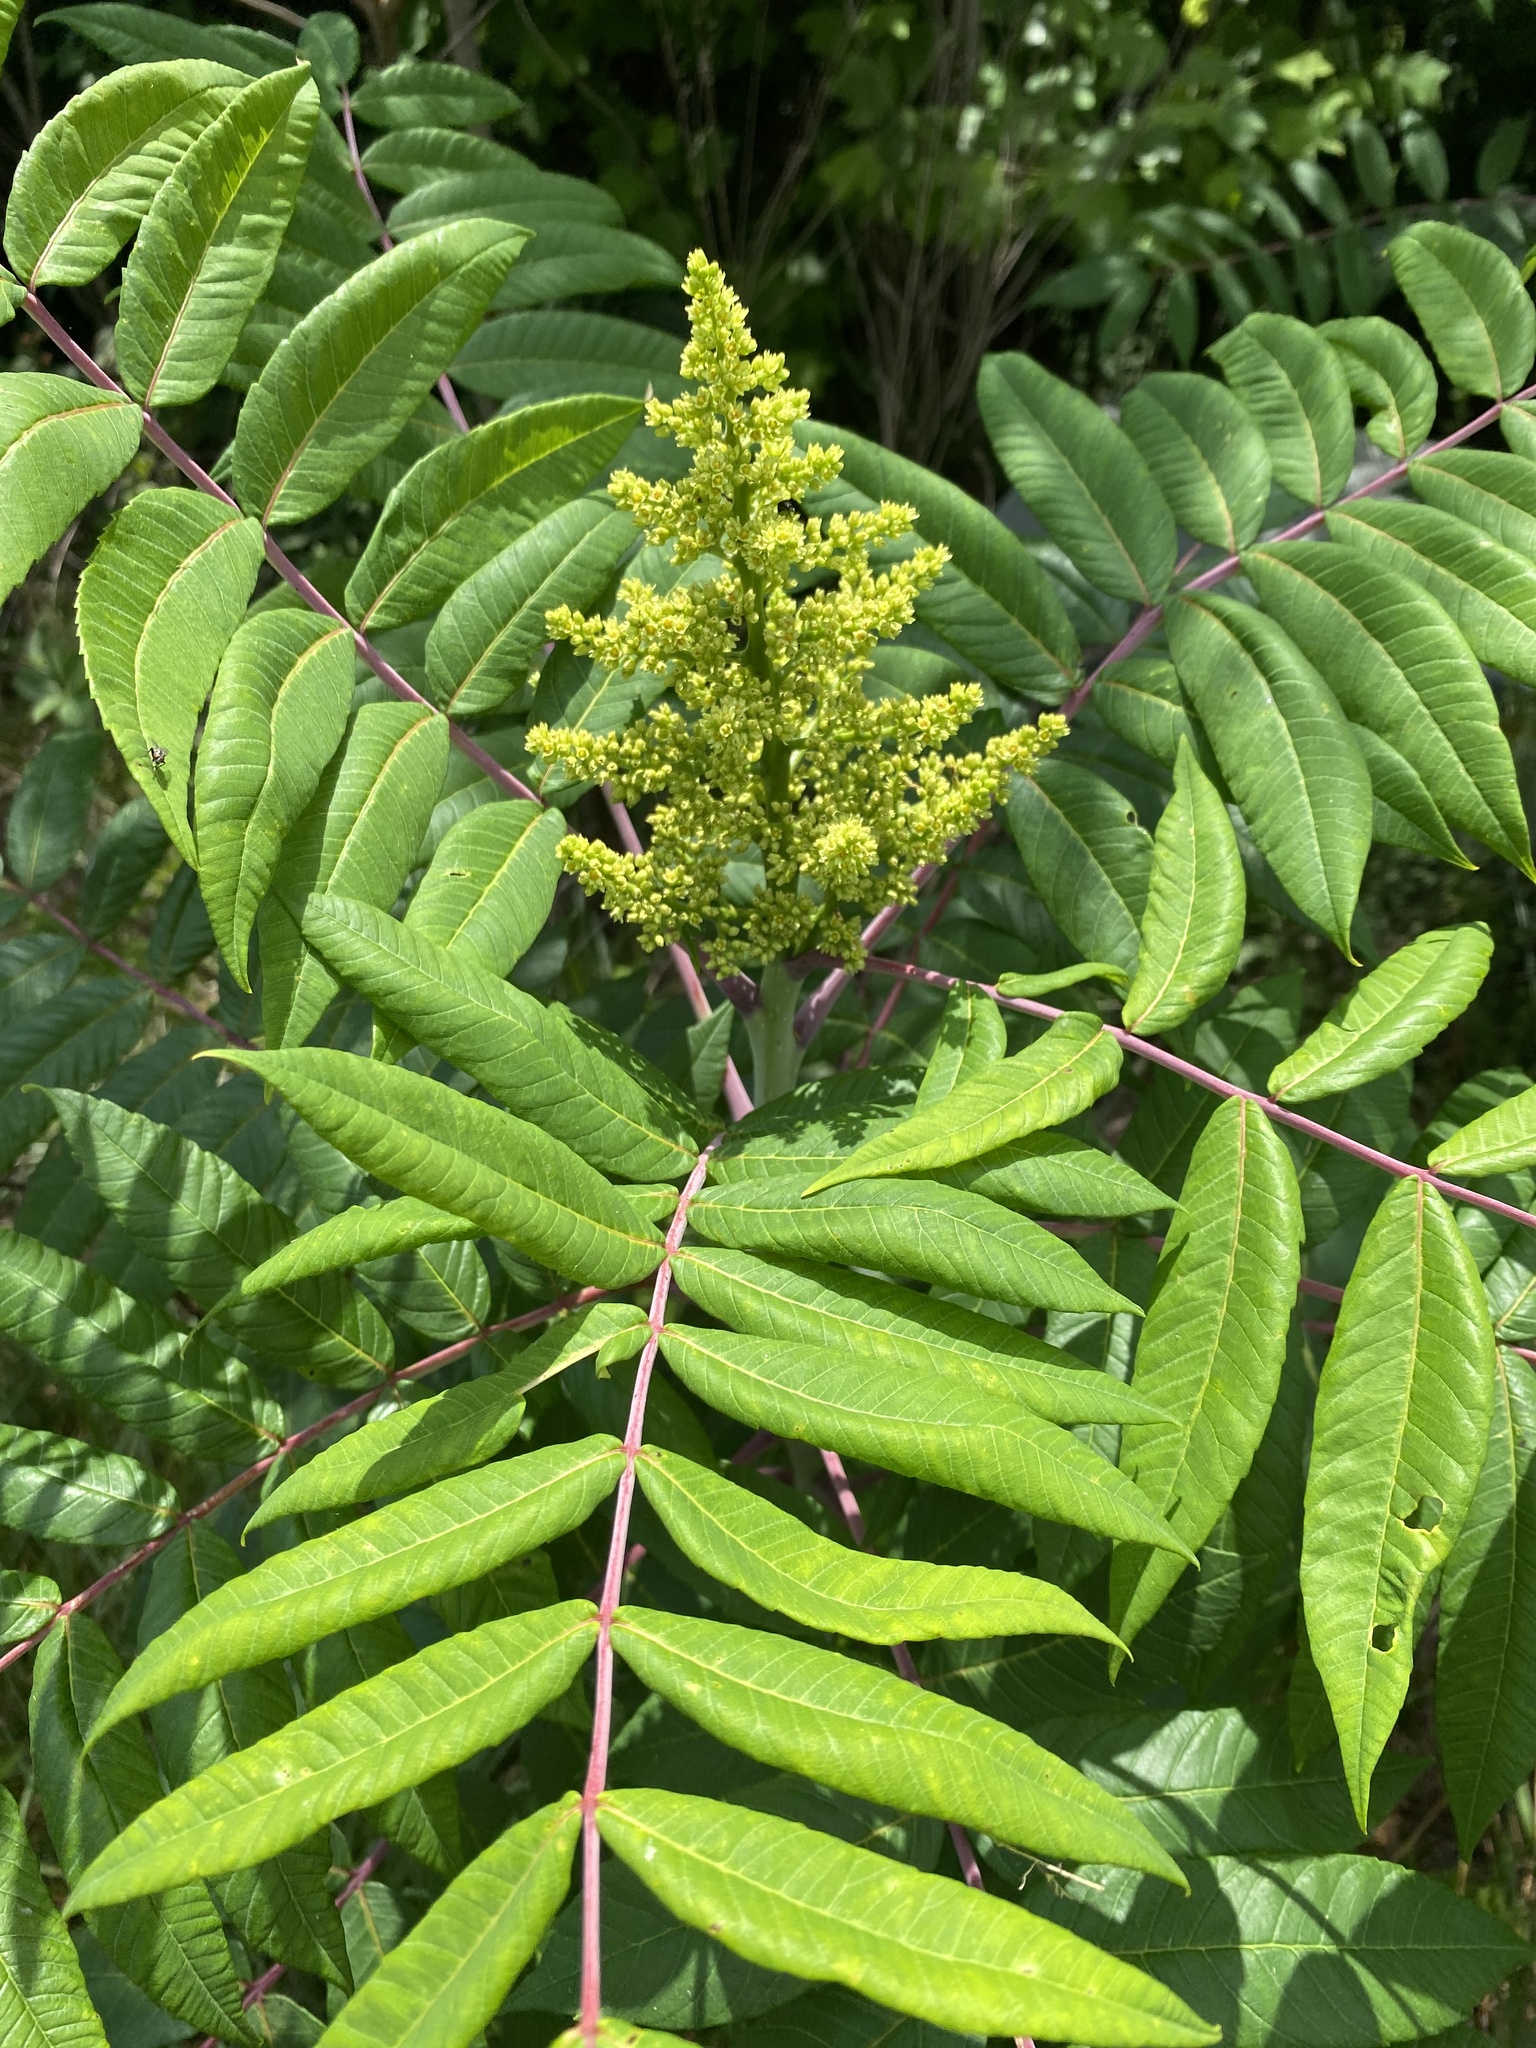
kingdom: Plantae
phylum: Tracheophyta
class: Magnoliopsida
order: Sapindales
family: Anacardiaceae
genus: Rhus
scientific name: Rhus glabra
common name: Scarlet sumac
